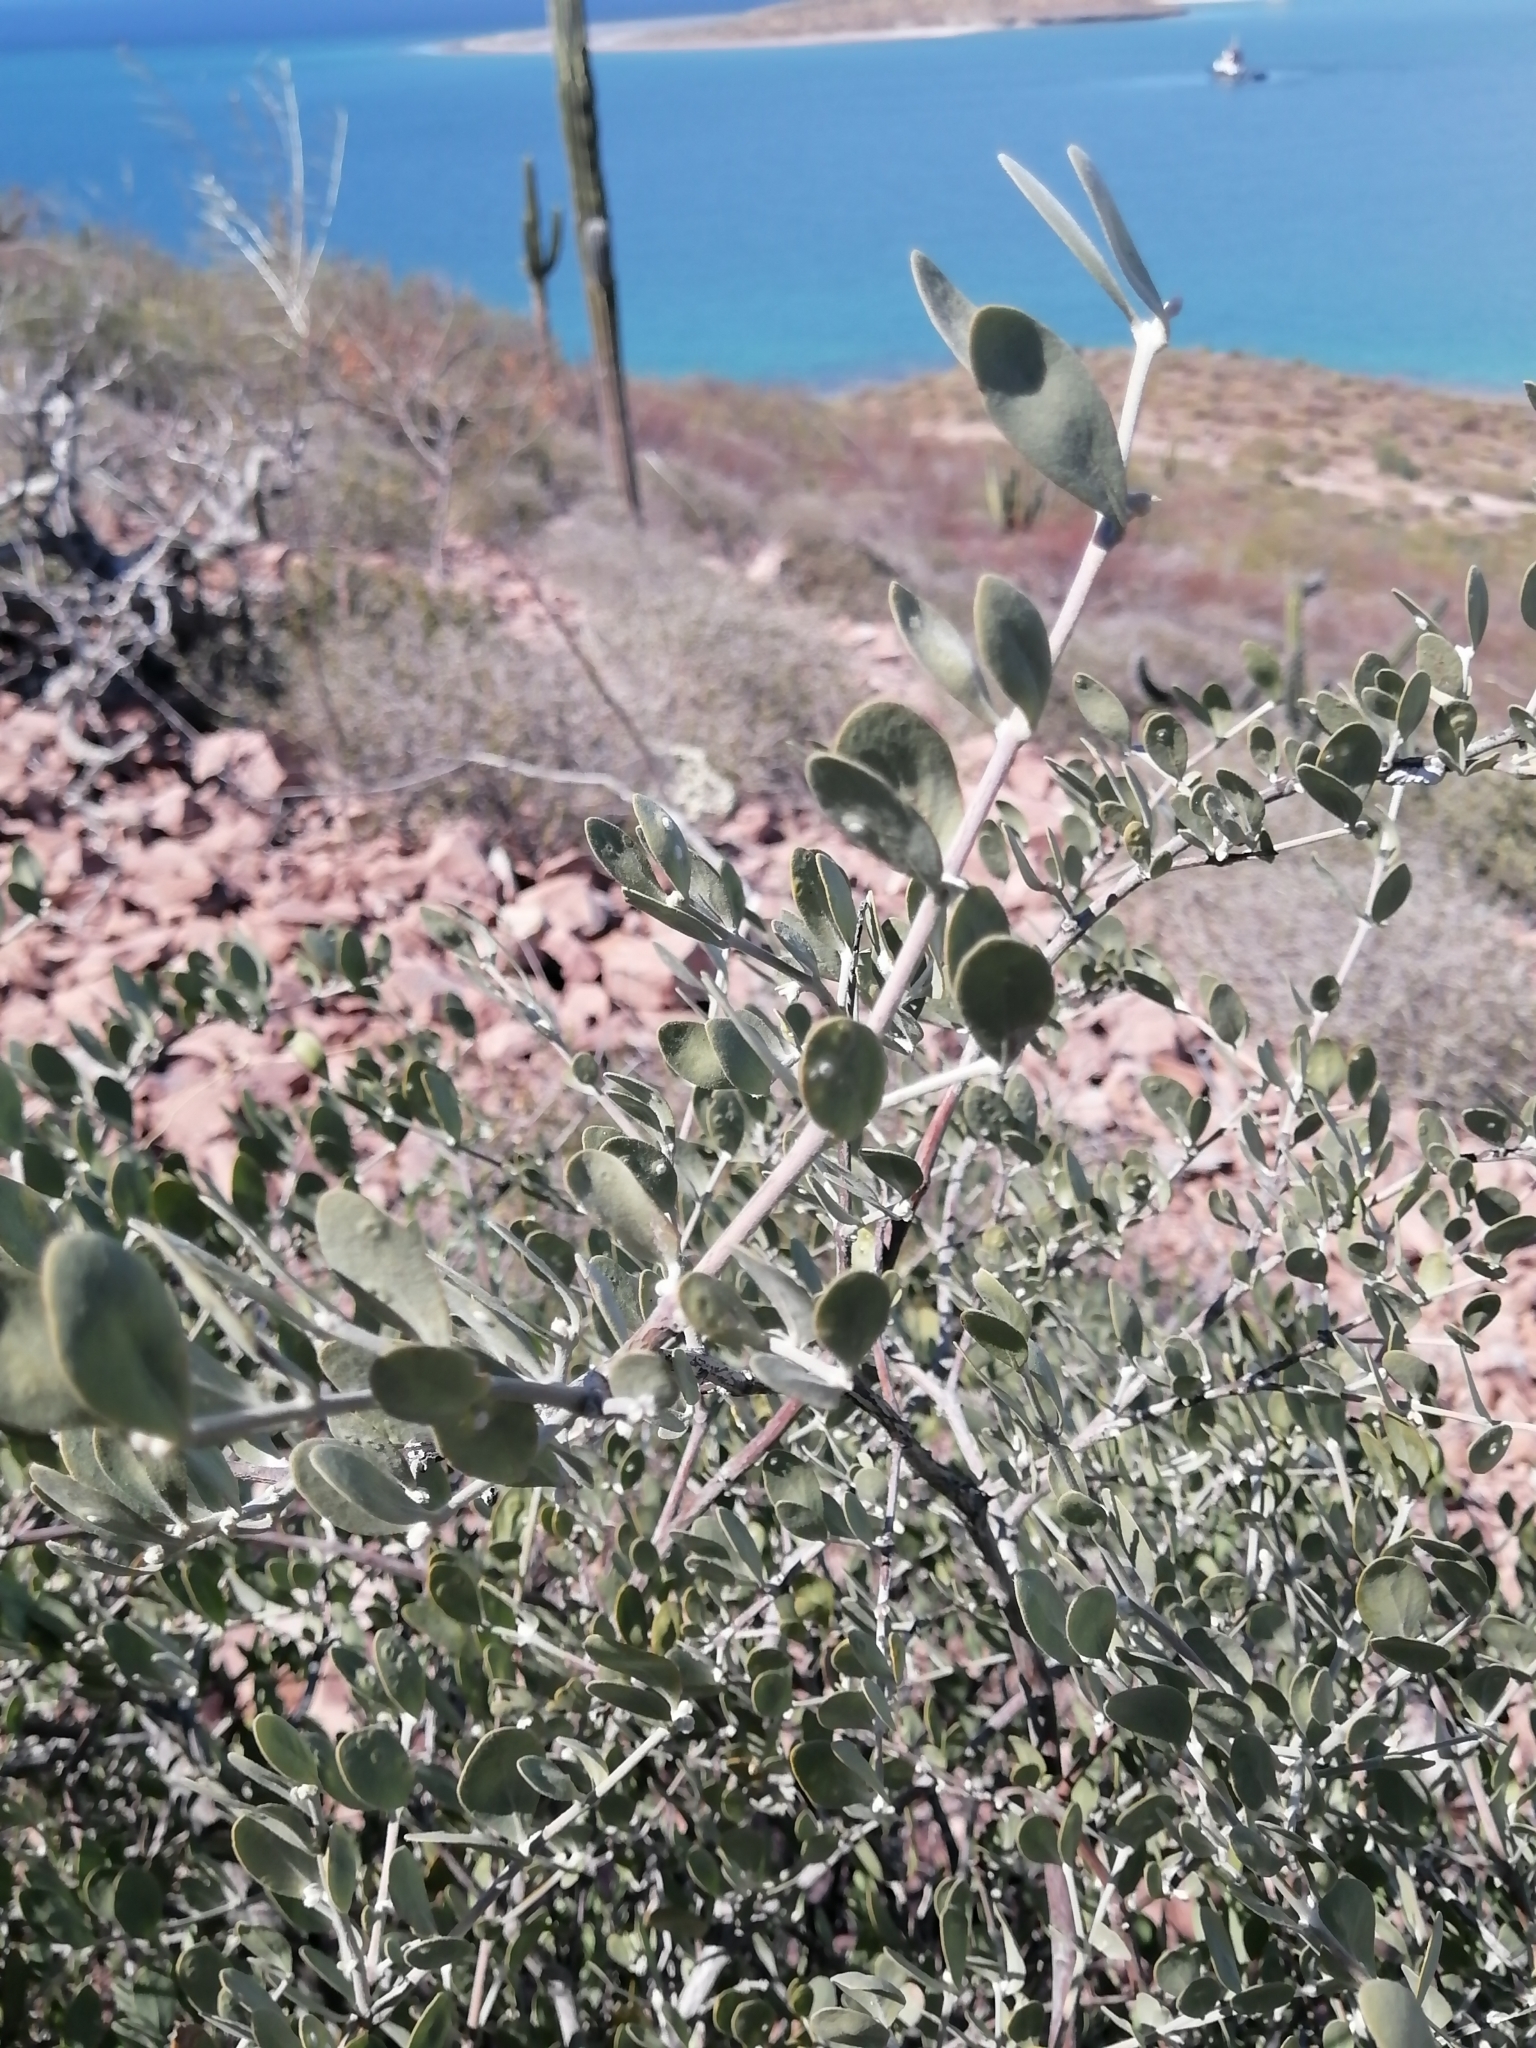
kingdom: Plantae
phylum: Tracheophyta
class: Magnoliopsida
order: Caryophyllales
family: Simmondsiaceae
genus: Simmondsia
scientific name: Simmondsia chinensis
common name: Jojoba
